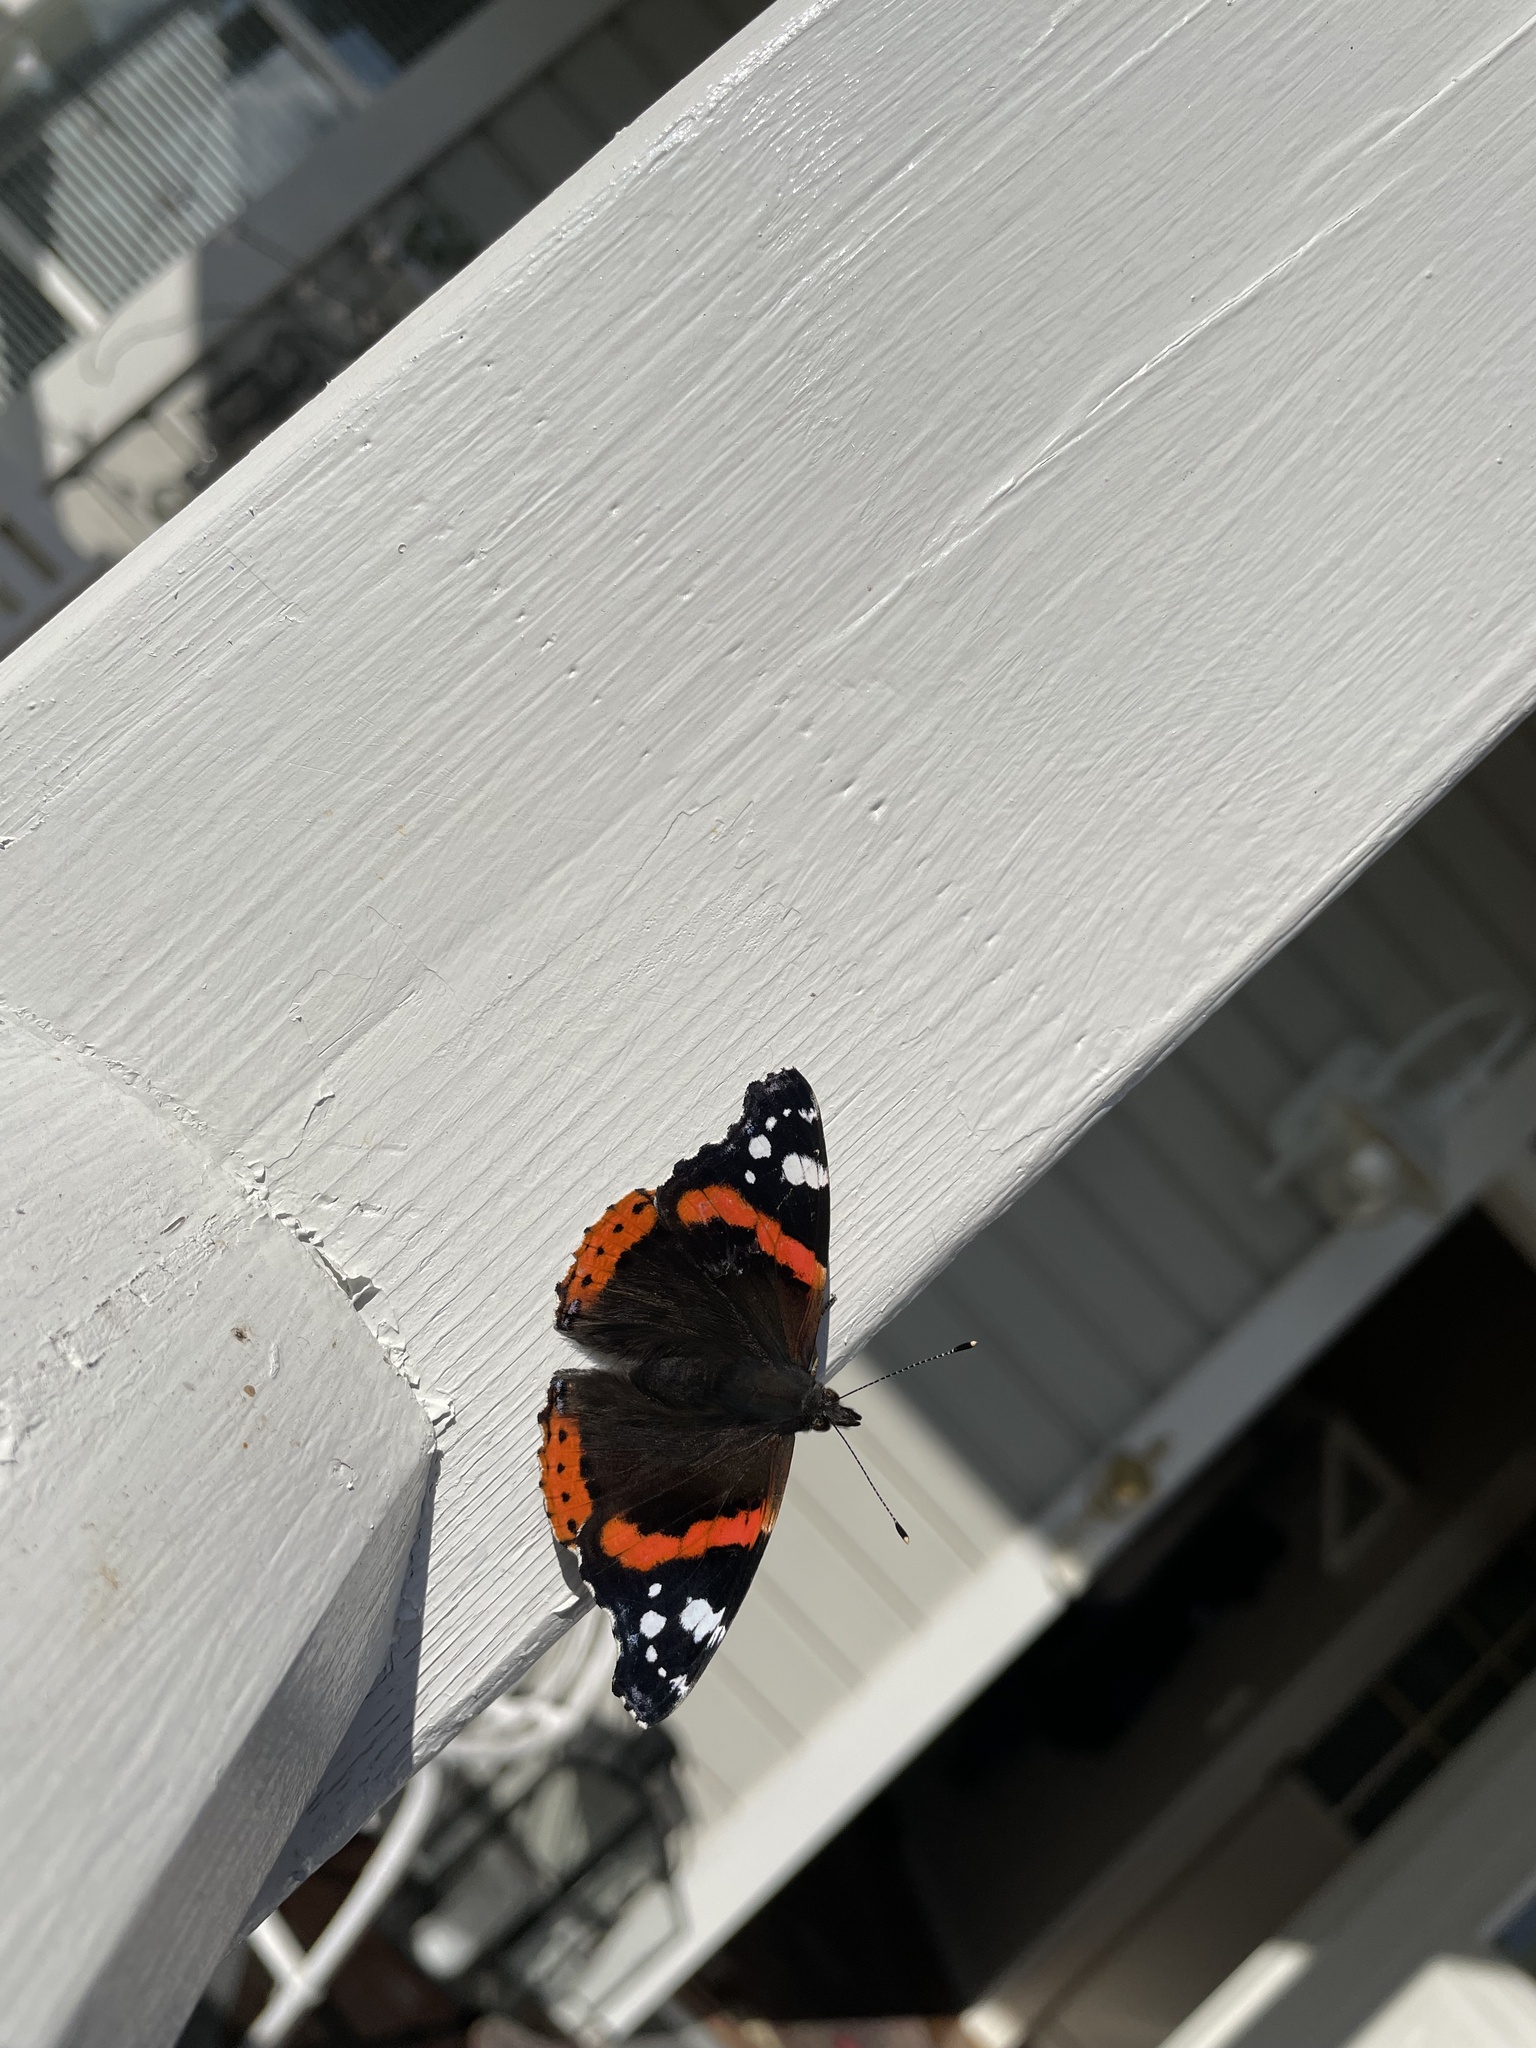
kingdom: Animalia
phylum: Arthropoda
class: Insecta
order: Lepidoptera
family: Nymphalidae
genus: Vanessa
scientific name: Vanessa atalanta
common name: Red admiral
